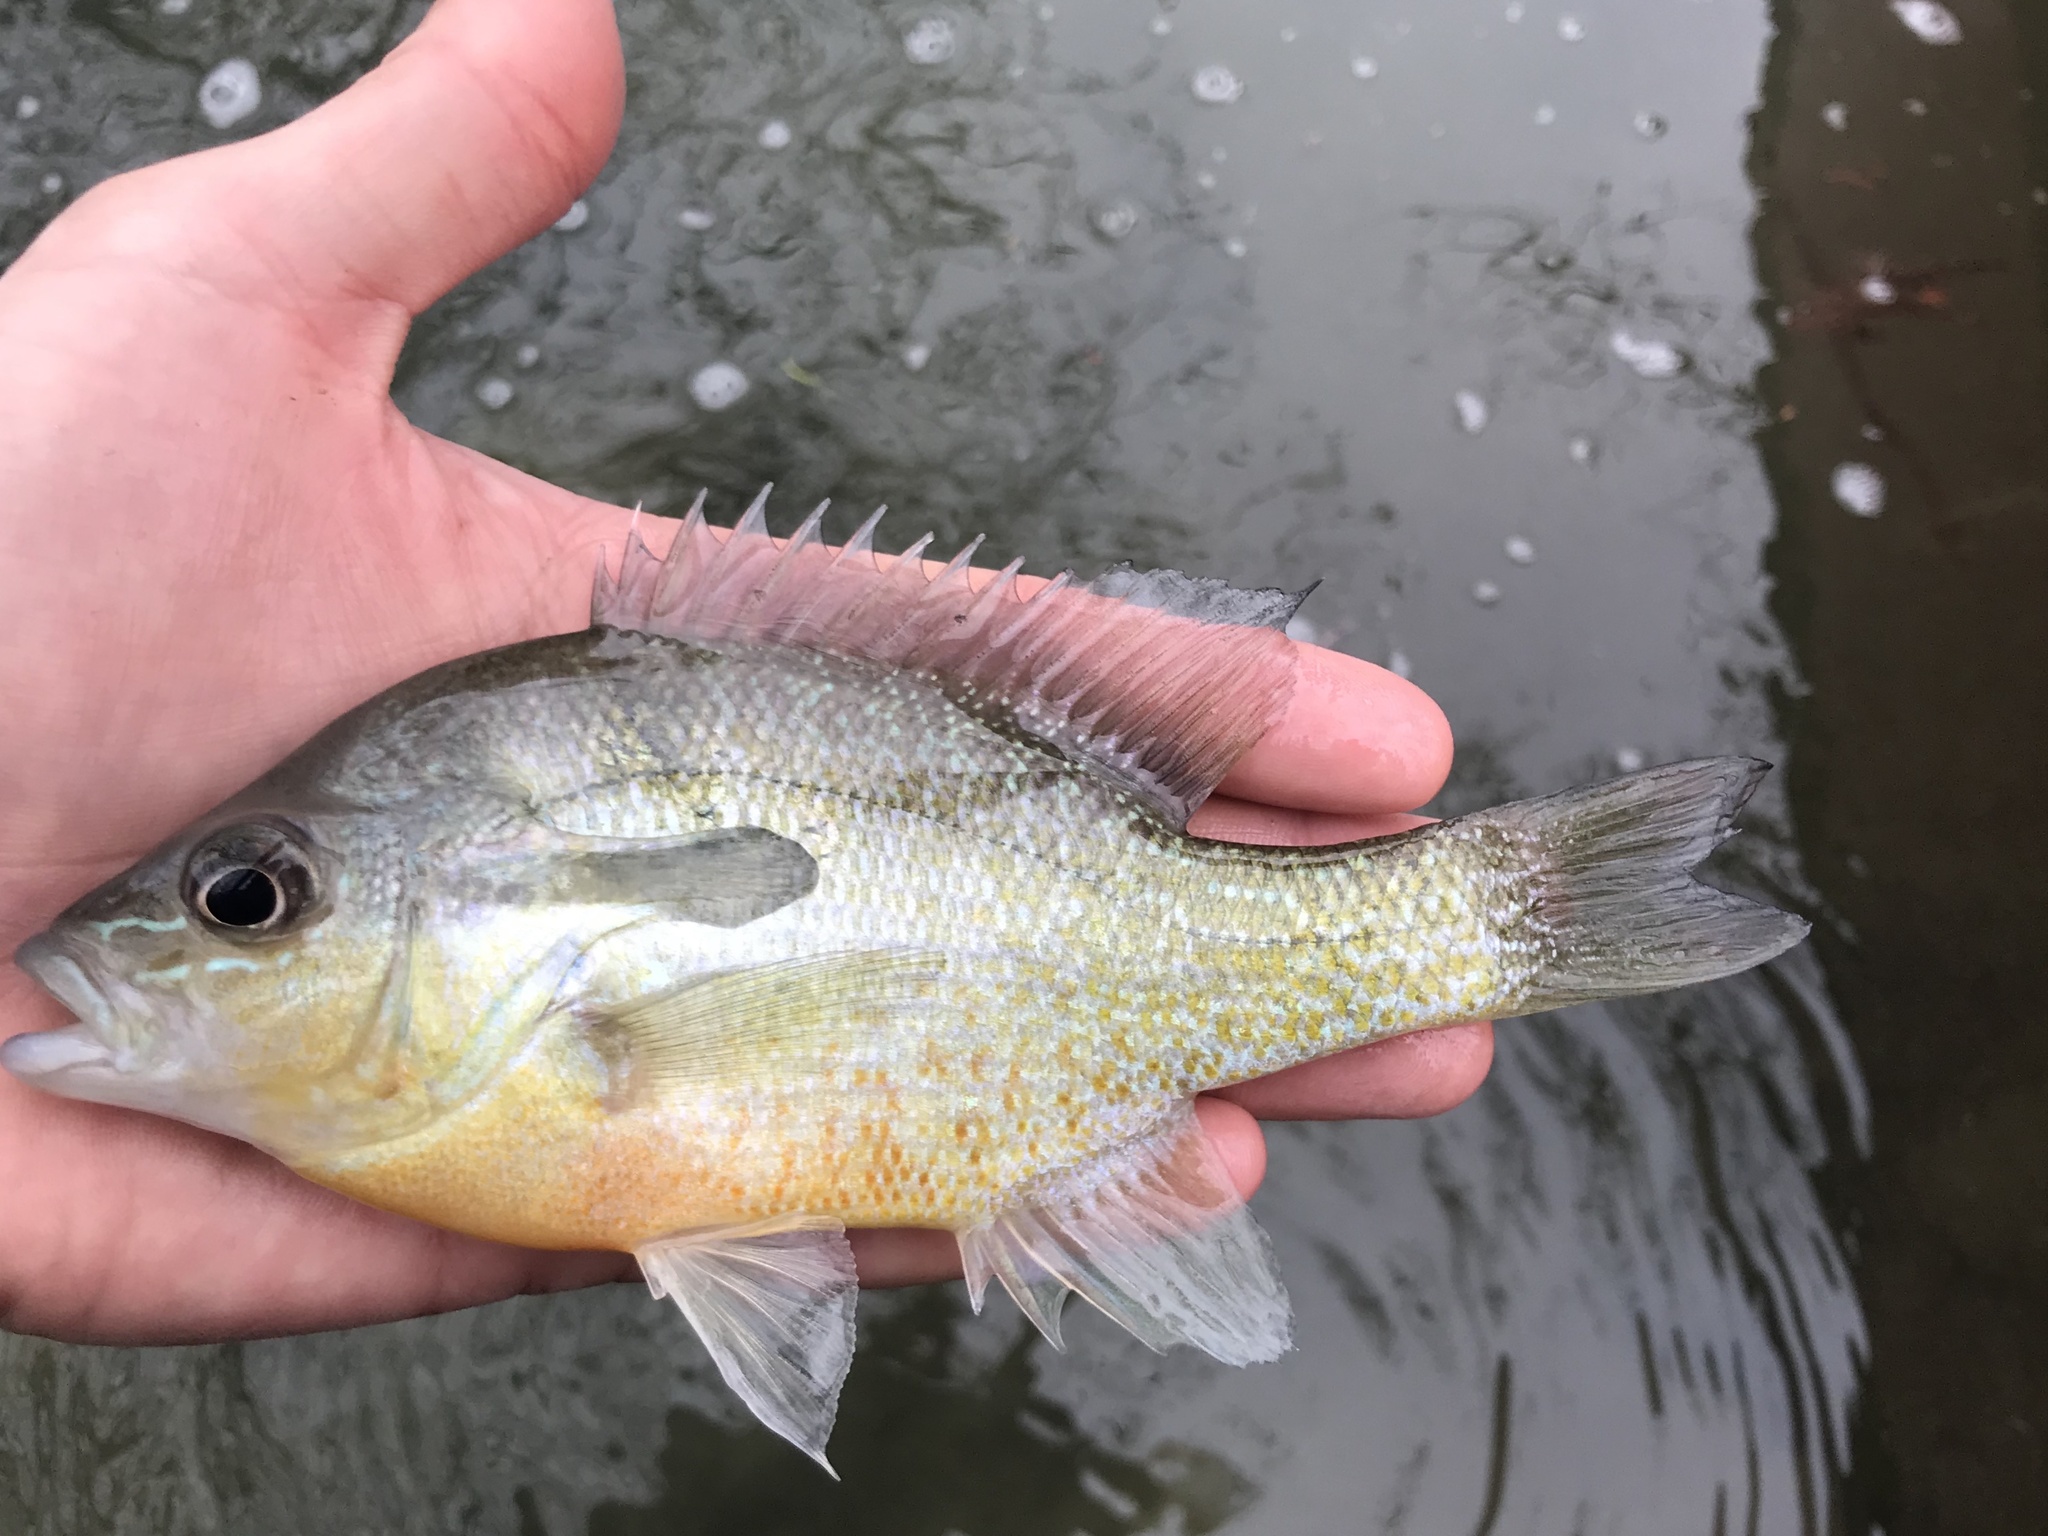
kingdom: Animalia
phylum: Chordata
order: Perciformes
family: Centrarchidae
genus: Lepomis
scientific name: Lepomis auritus
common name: Redbreast sunfish
